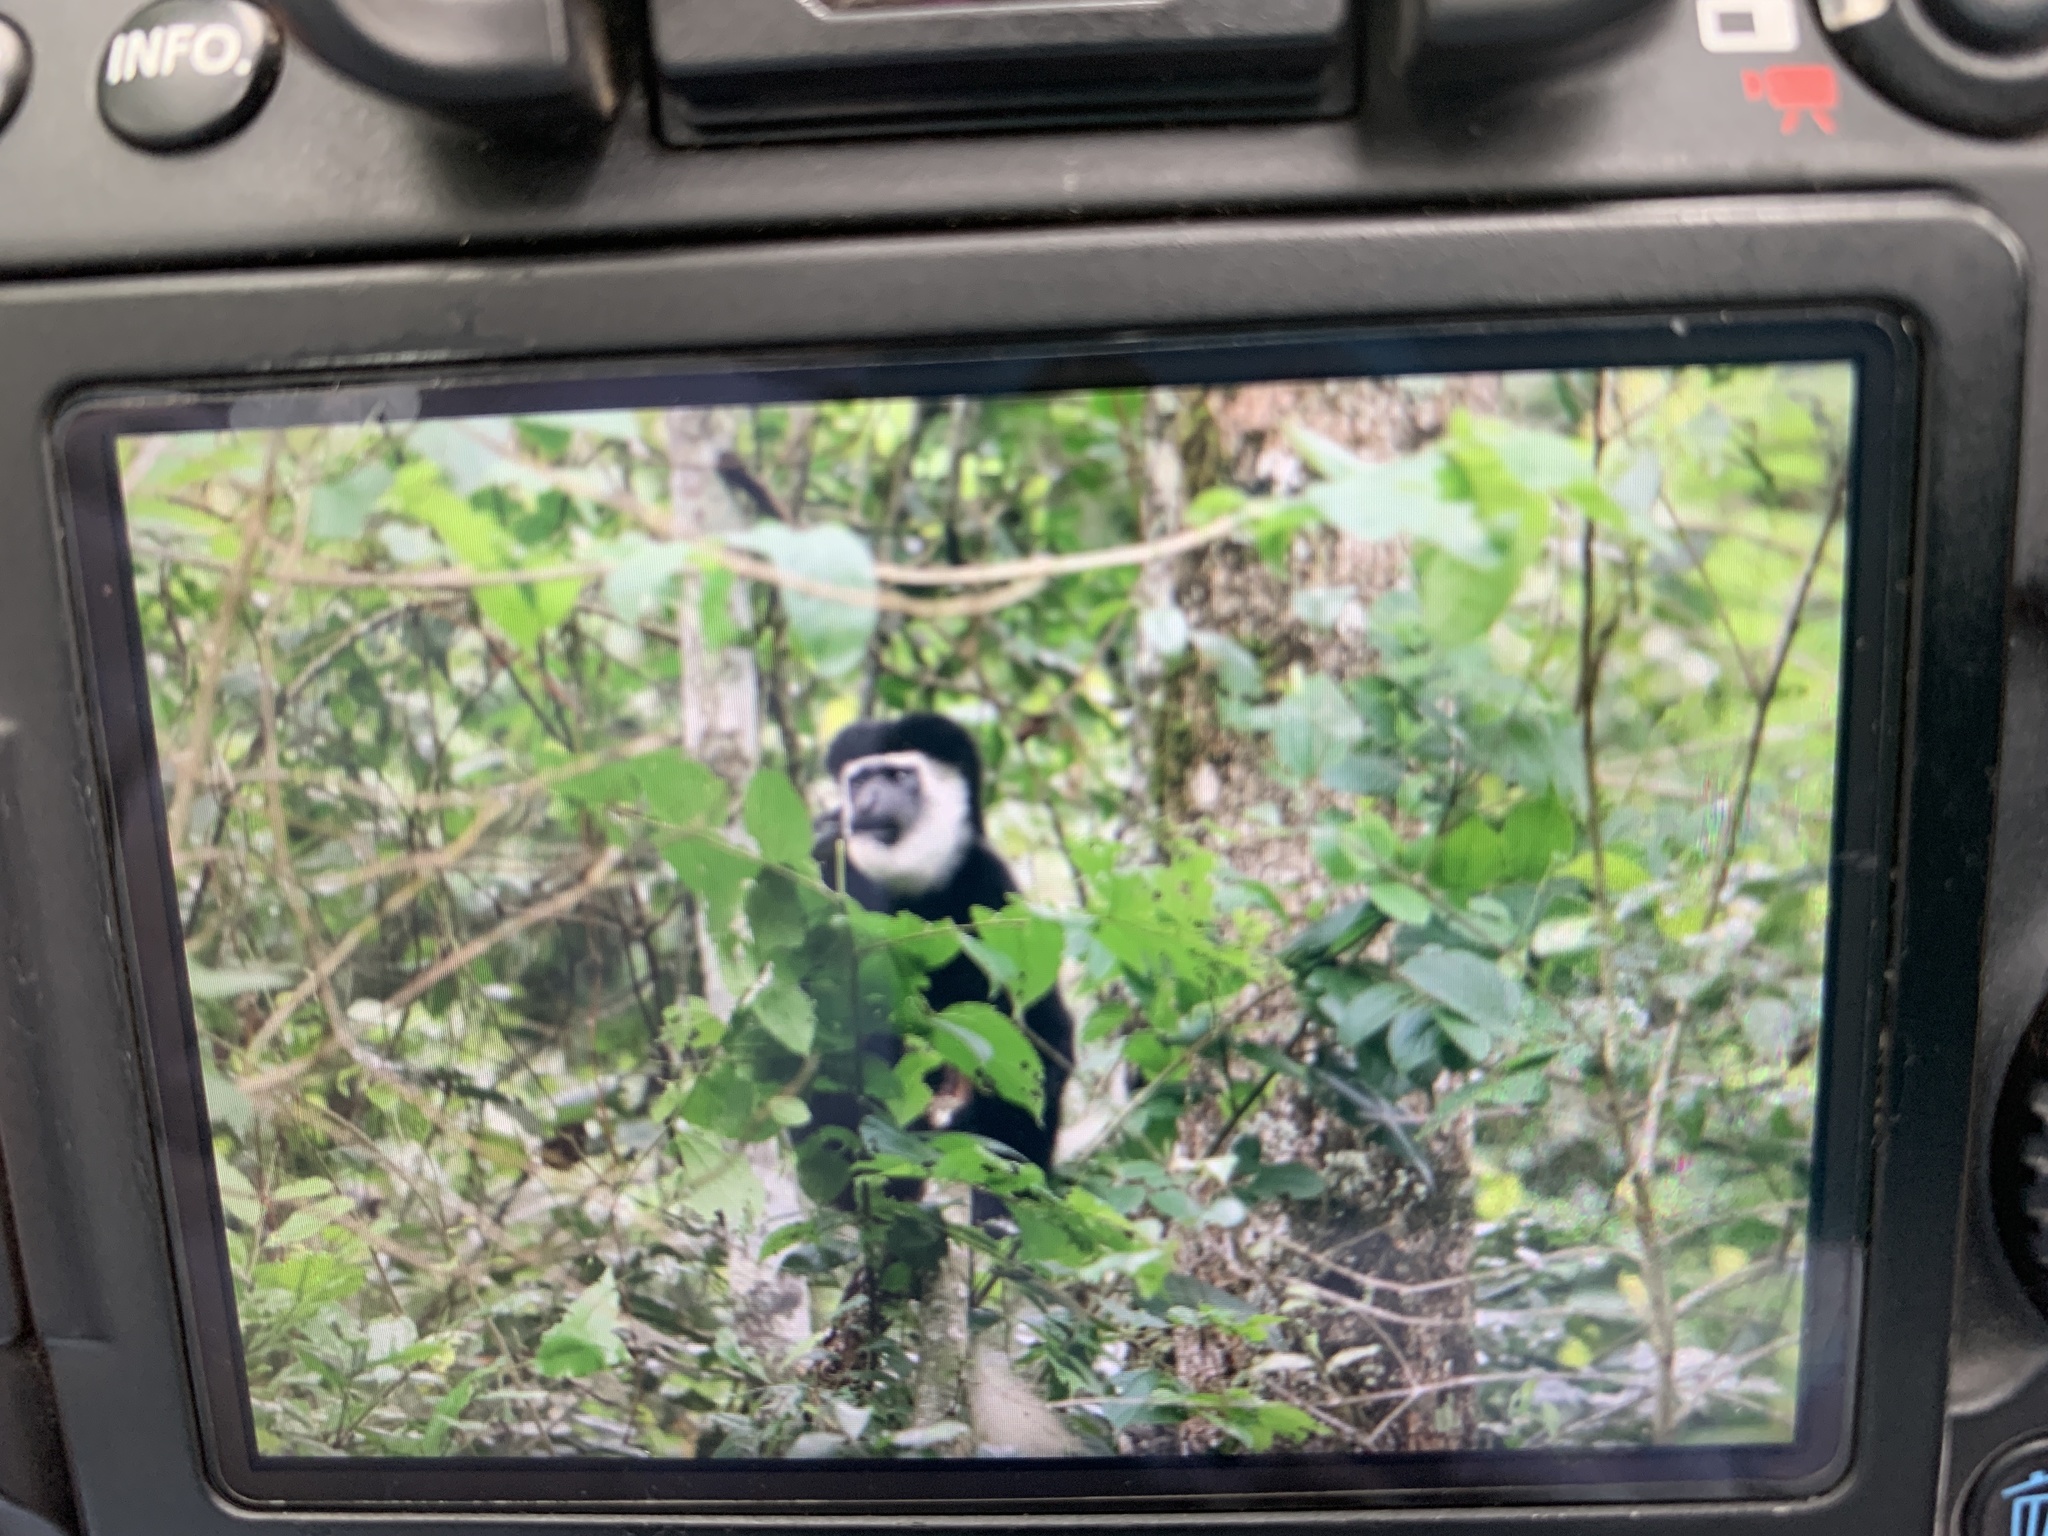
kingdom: Animalia
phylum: Chordata
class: Mammalia
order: Primates
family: Cercopithecidae
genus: Colobus
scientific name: Colobus caudatus
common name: Mount kilimanjaro guereza
